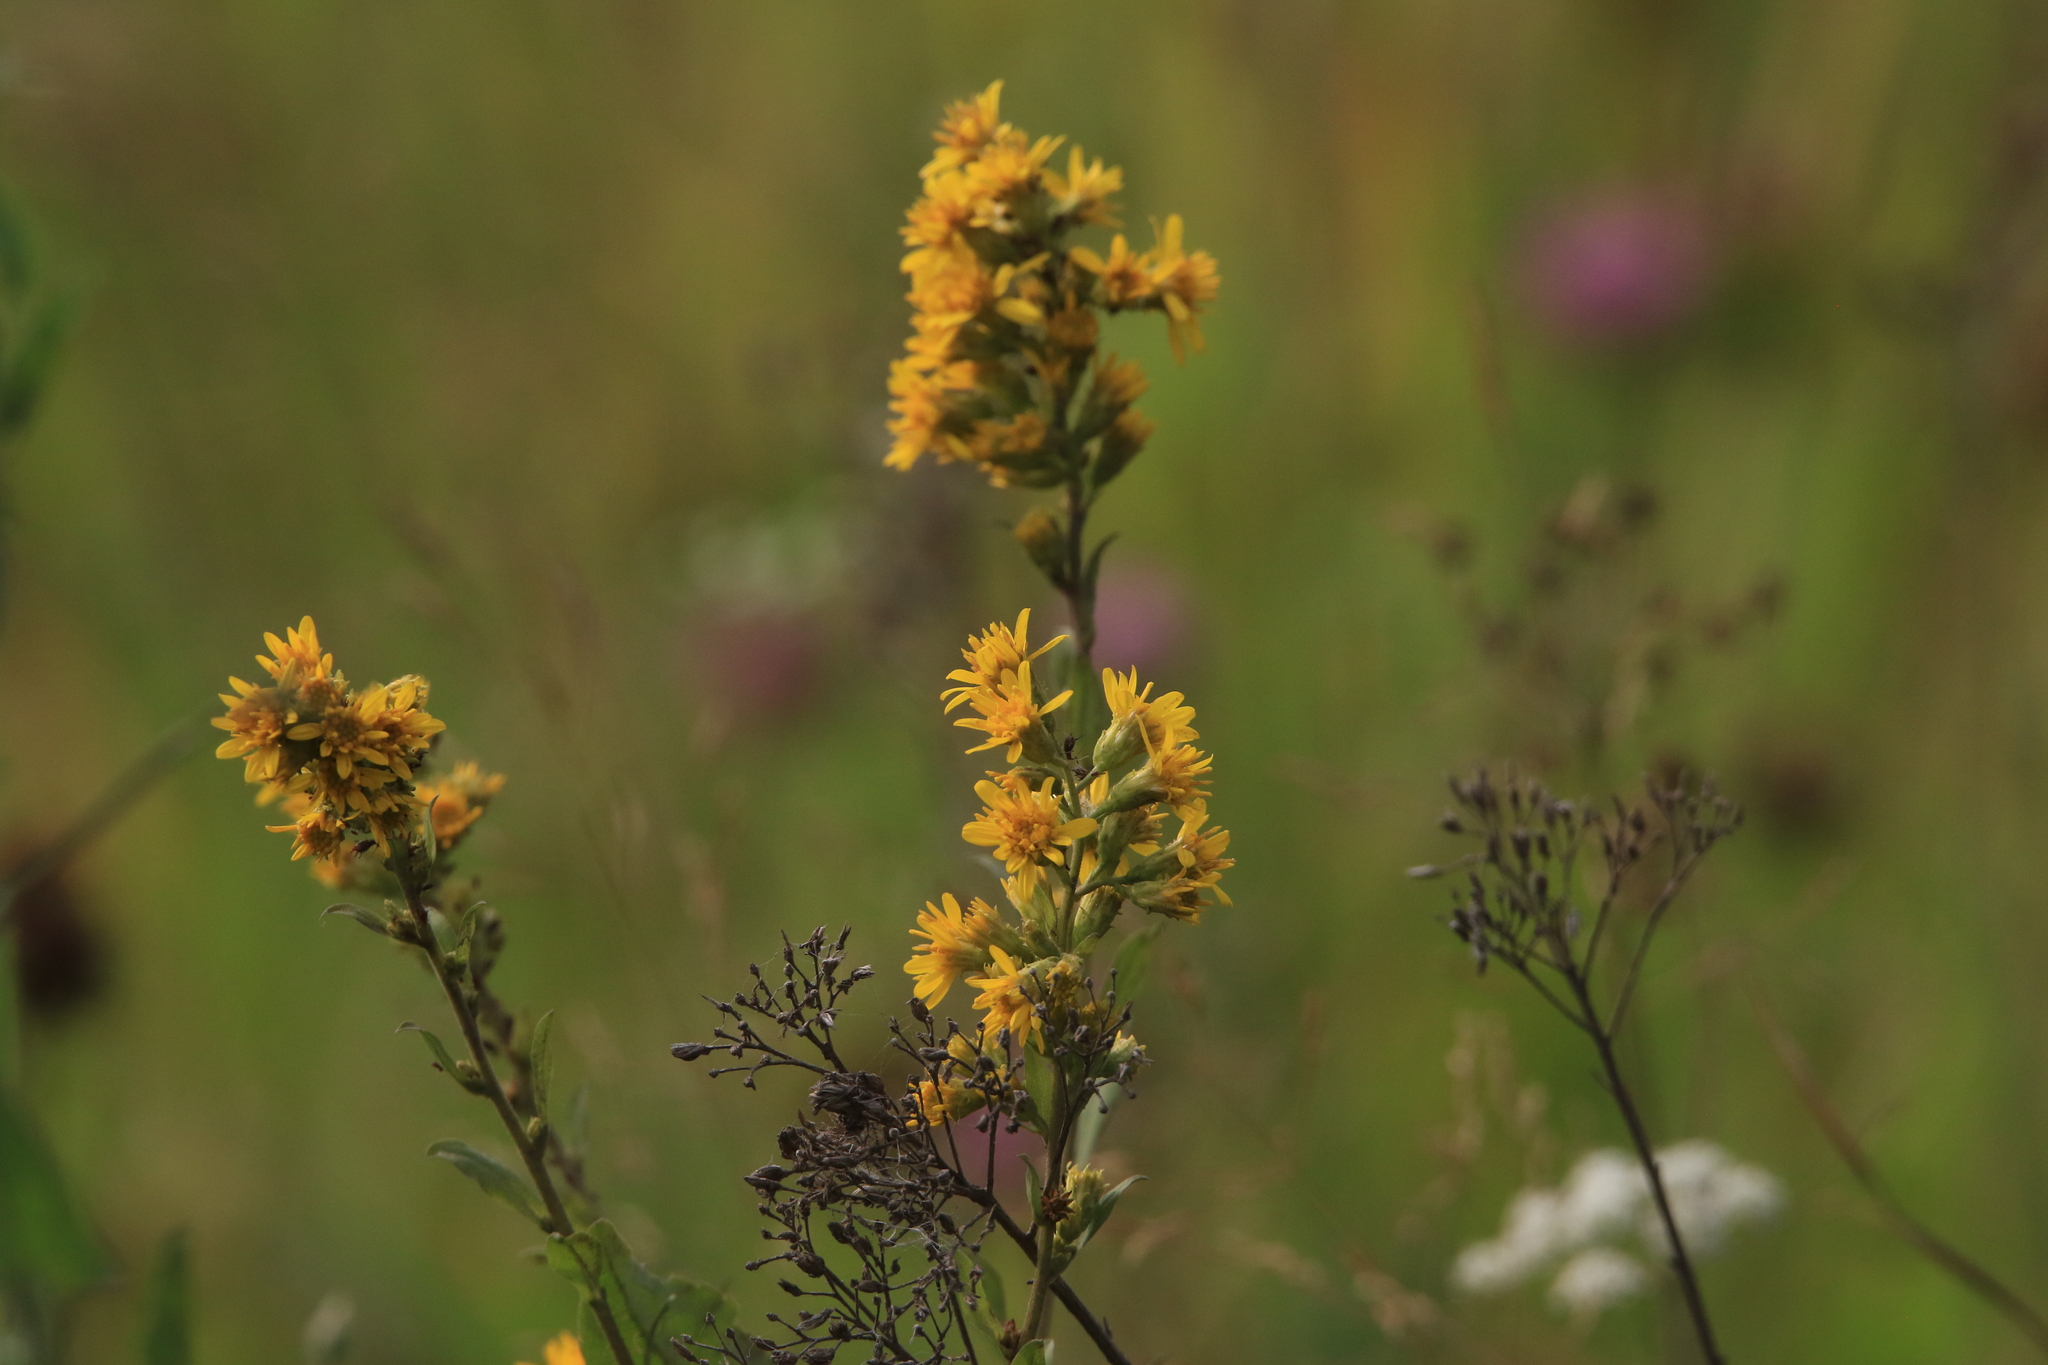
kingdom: Plantae
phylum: Tracheophyta
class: Magnoliopsida
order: Asterales
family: Asteraceae
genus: Solidago
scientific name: Solidago virgaurea
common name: Goldenrod
